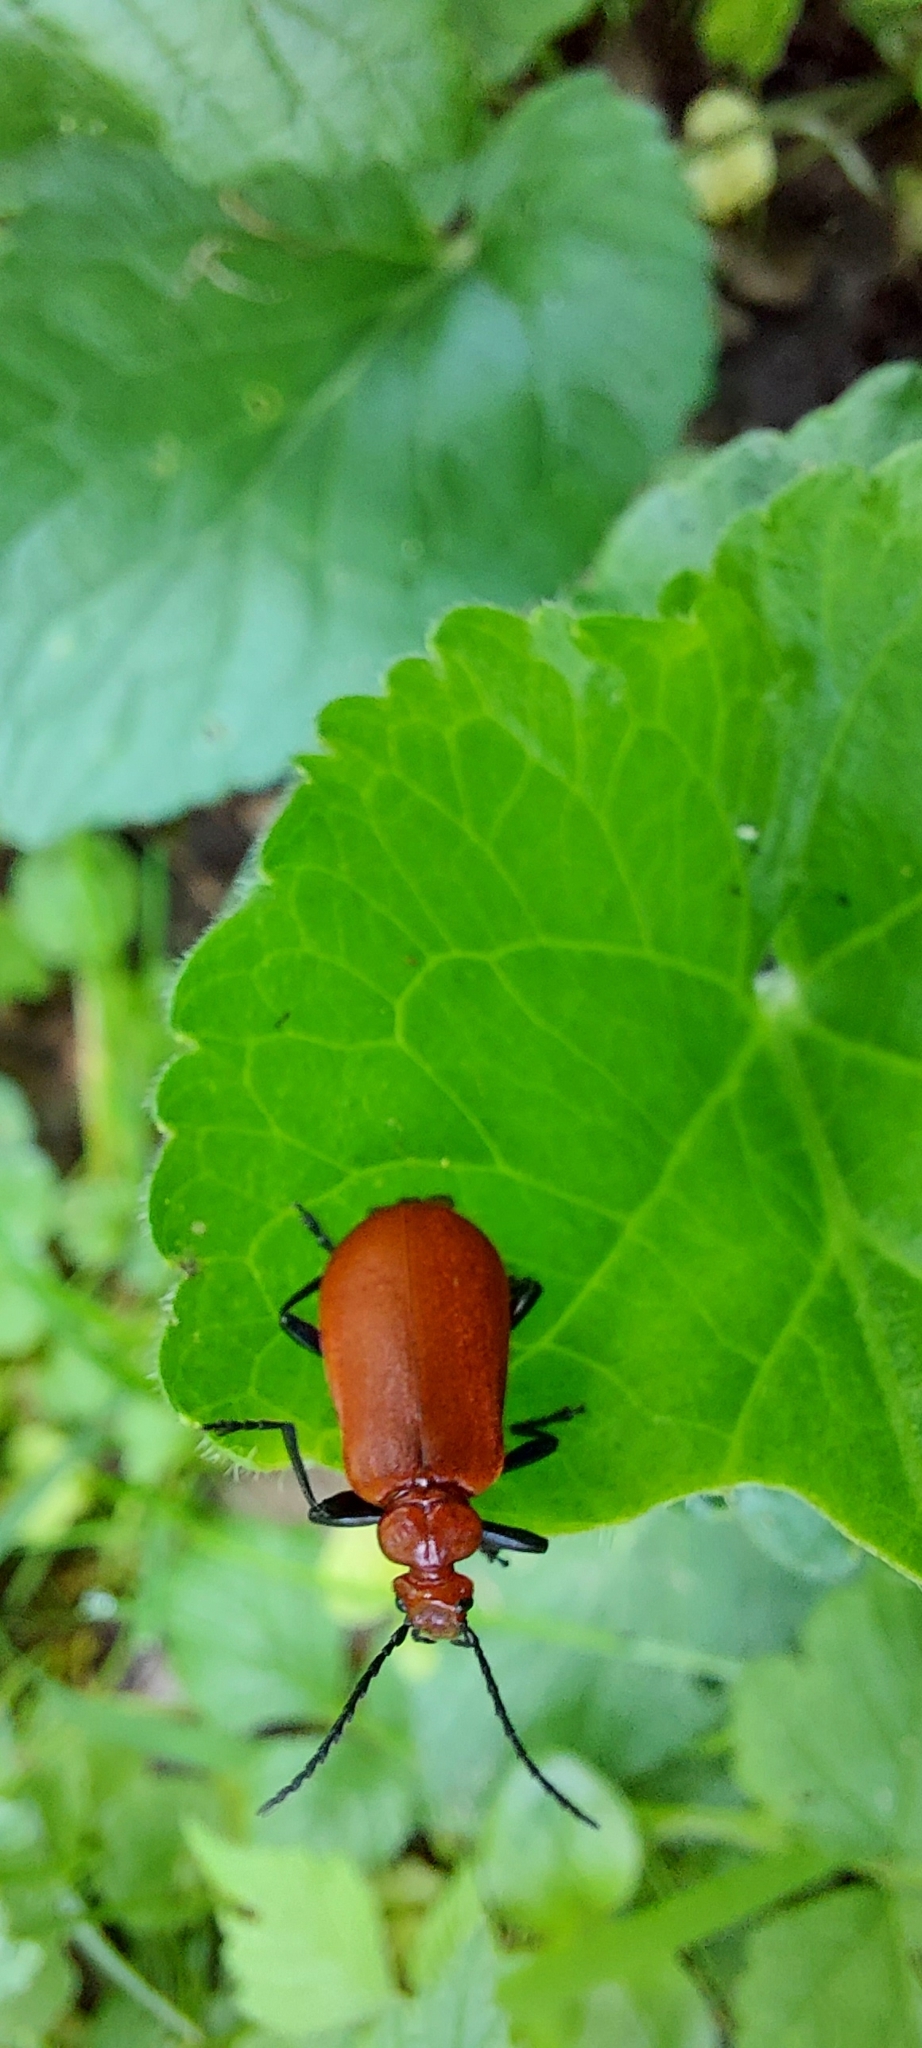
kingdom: Animalia
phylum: Arthropoda
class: Insecta
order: Coleoptera
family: Pyrochroidae
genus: Pyrochroa
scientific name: Pyrochroa serraticornis
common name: Red-headed cardinal beetle
